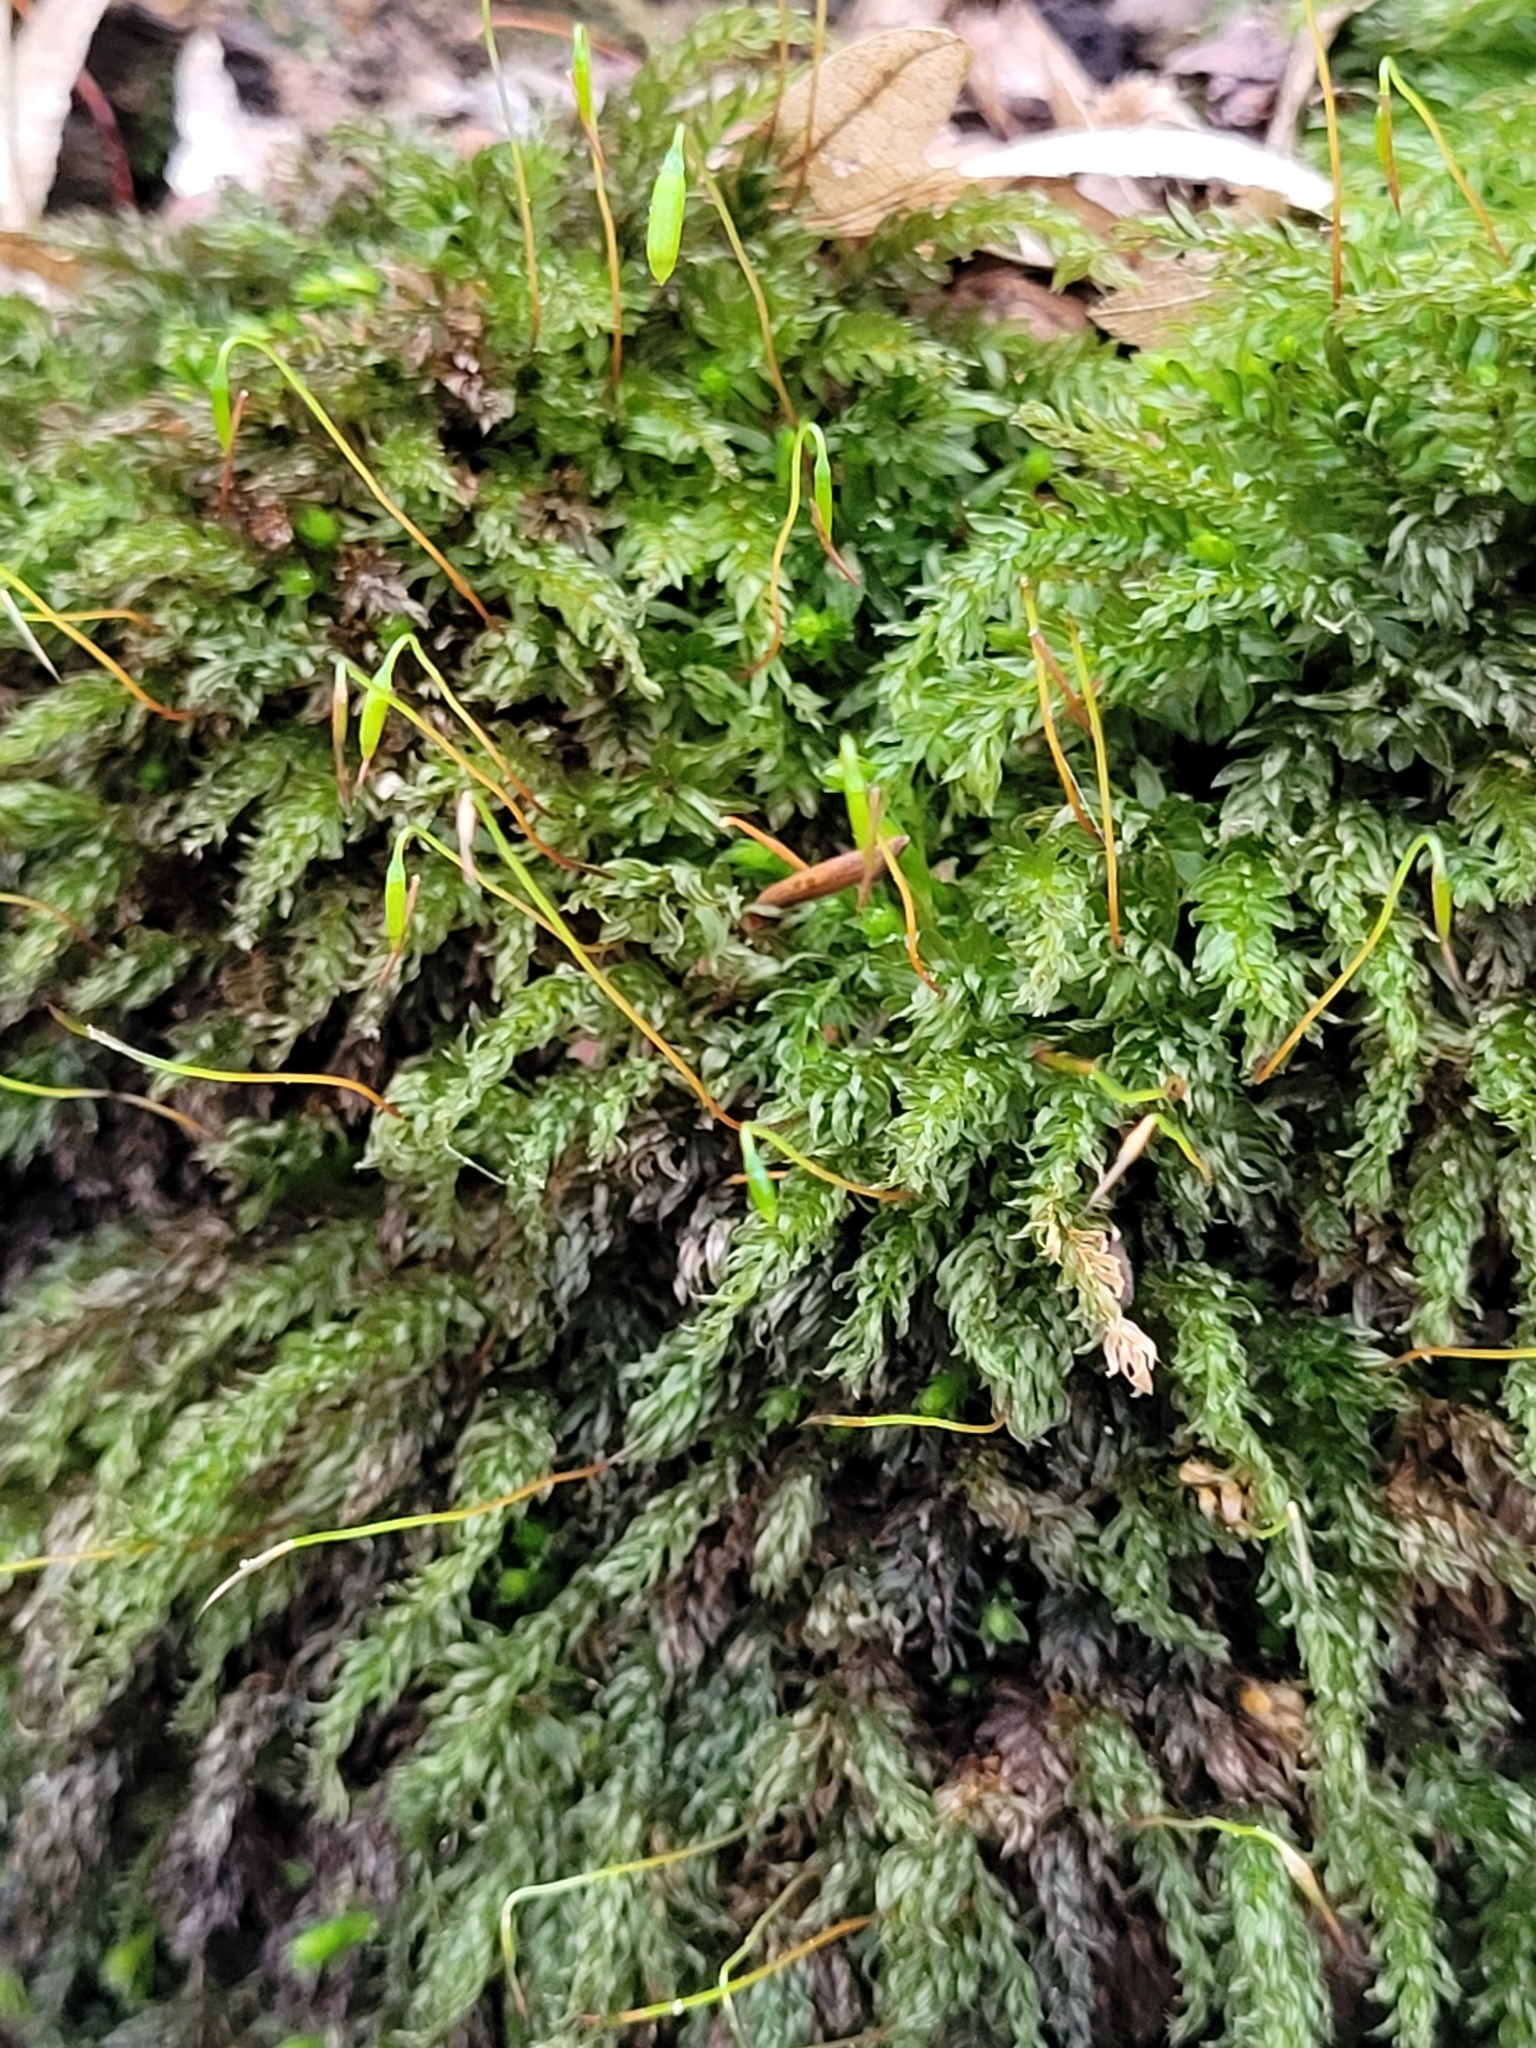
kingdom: Plantae
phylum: Bryophyta
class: Bryopsida
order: Bryales
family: Mniaceae
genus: Mnium
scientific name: Mnium hornum
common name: Swan's-neck leafy moss
